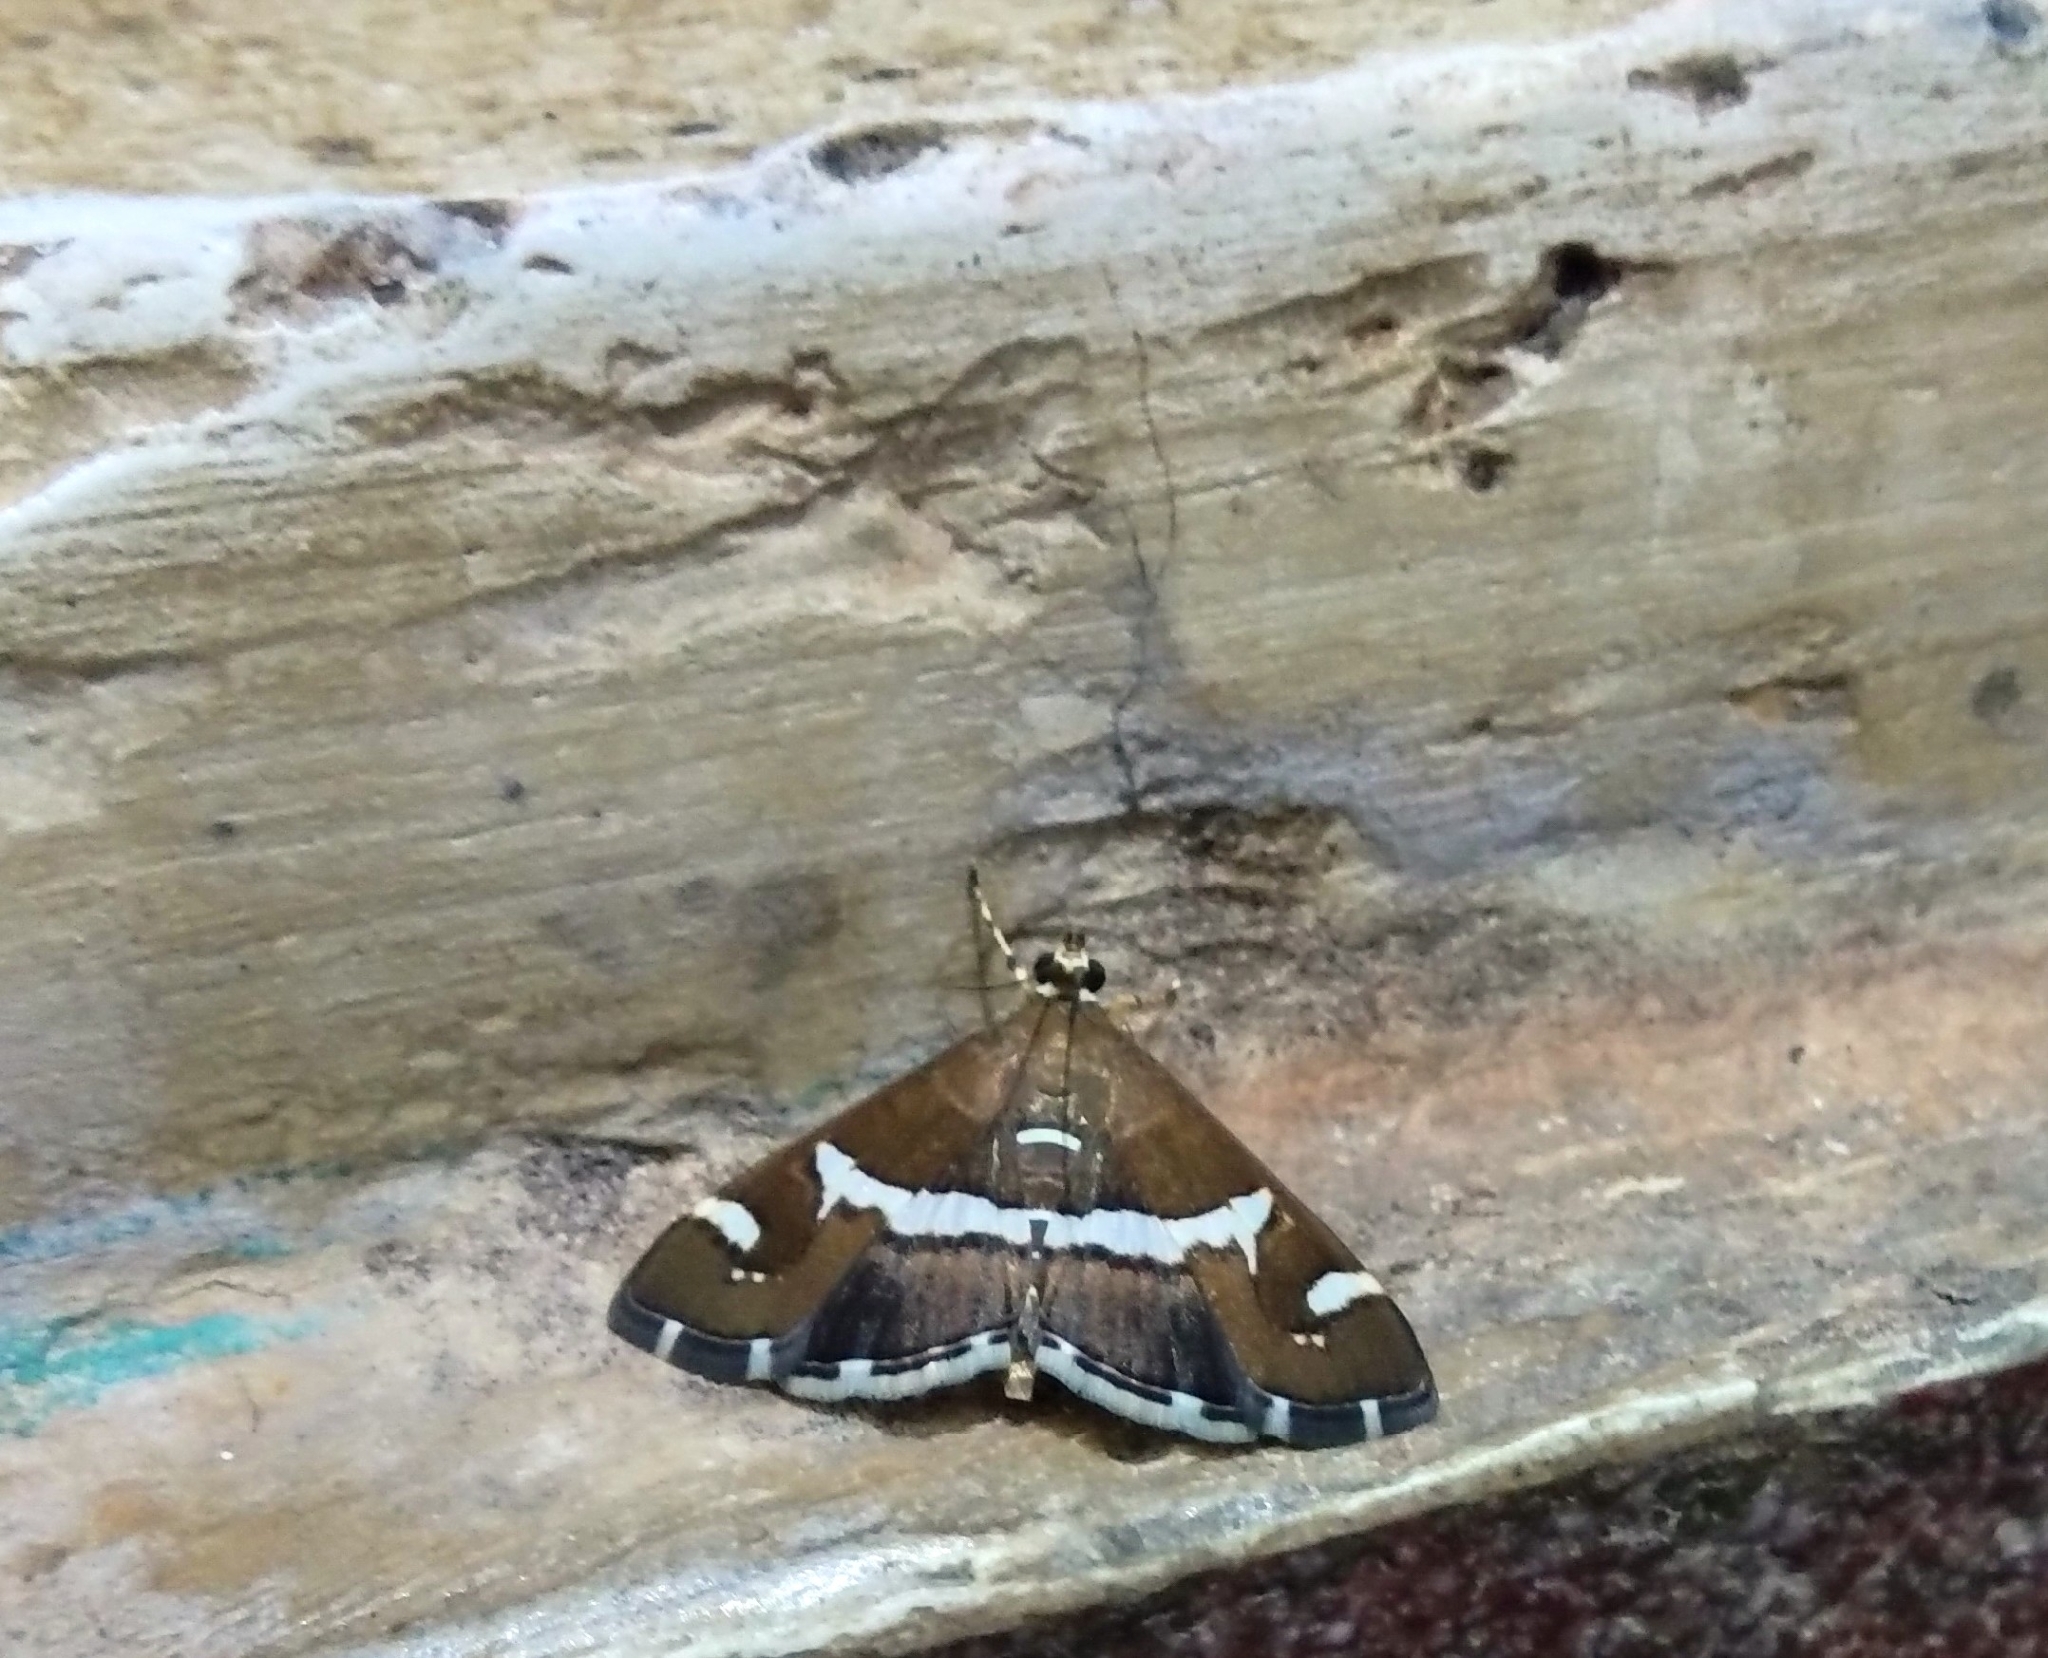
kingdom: Animalia
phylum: Arthropoda
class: Insecta
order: Lepidoptera
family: Crambidae
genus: Spoladea
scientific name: Spoladea recurvalis
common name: Beet webworm moth
